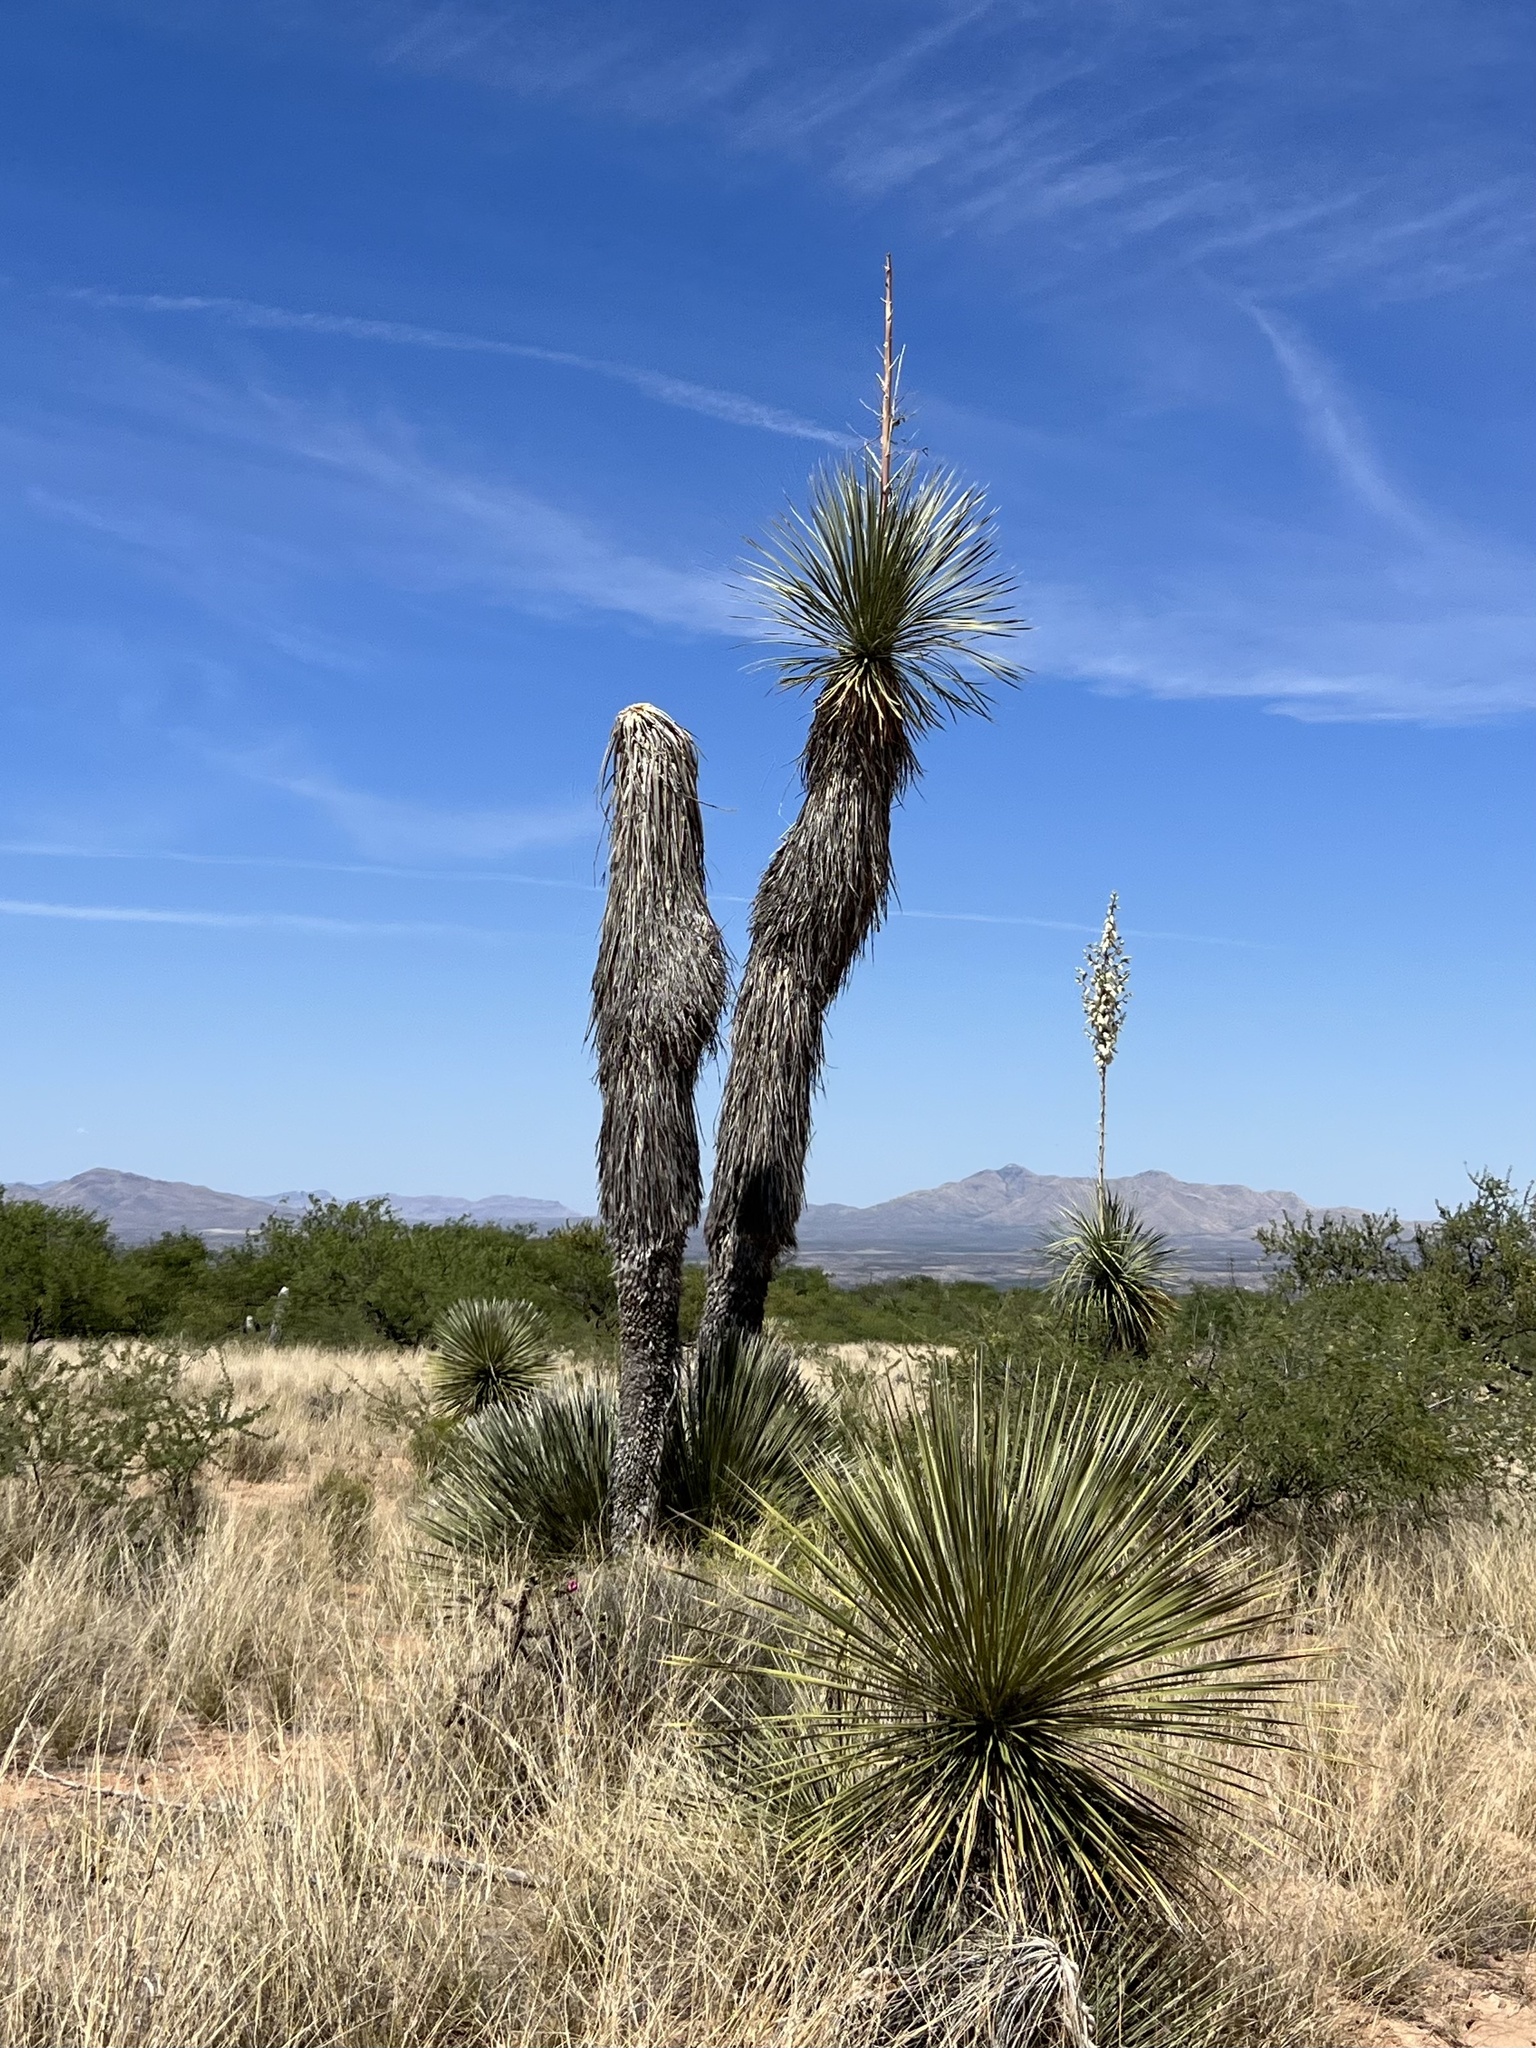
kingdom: Plantae
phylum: Tracheophyta
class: Liliopsida
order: Asparagales
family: Asparagaceae
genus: Yucca
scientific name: Yucca elata
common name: Palmella
